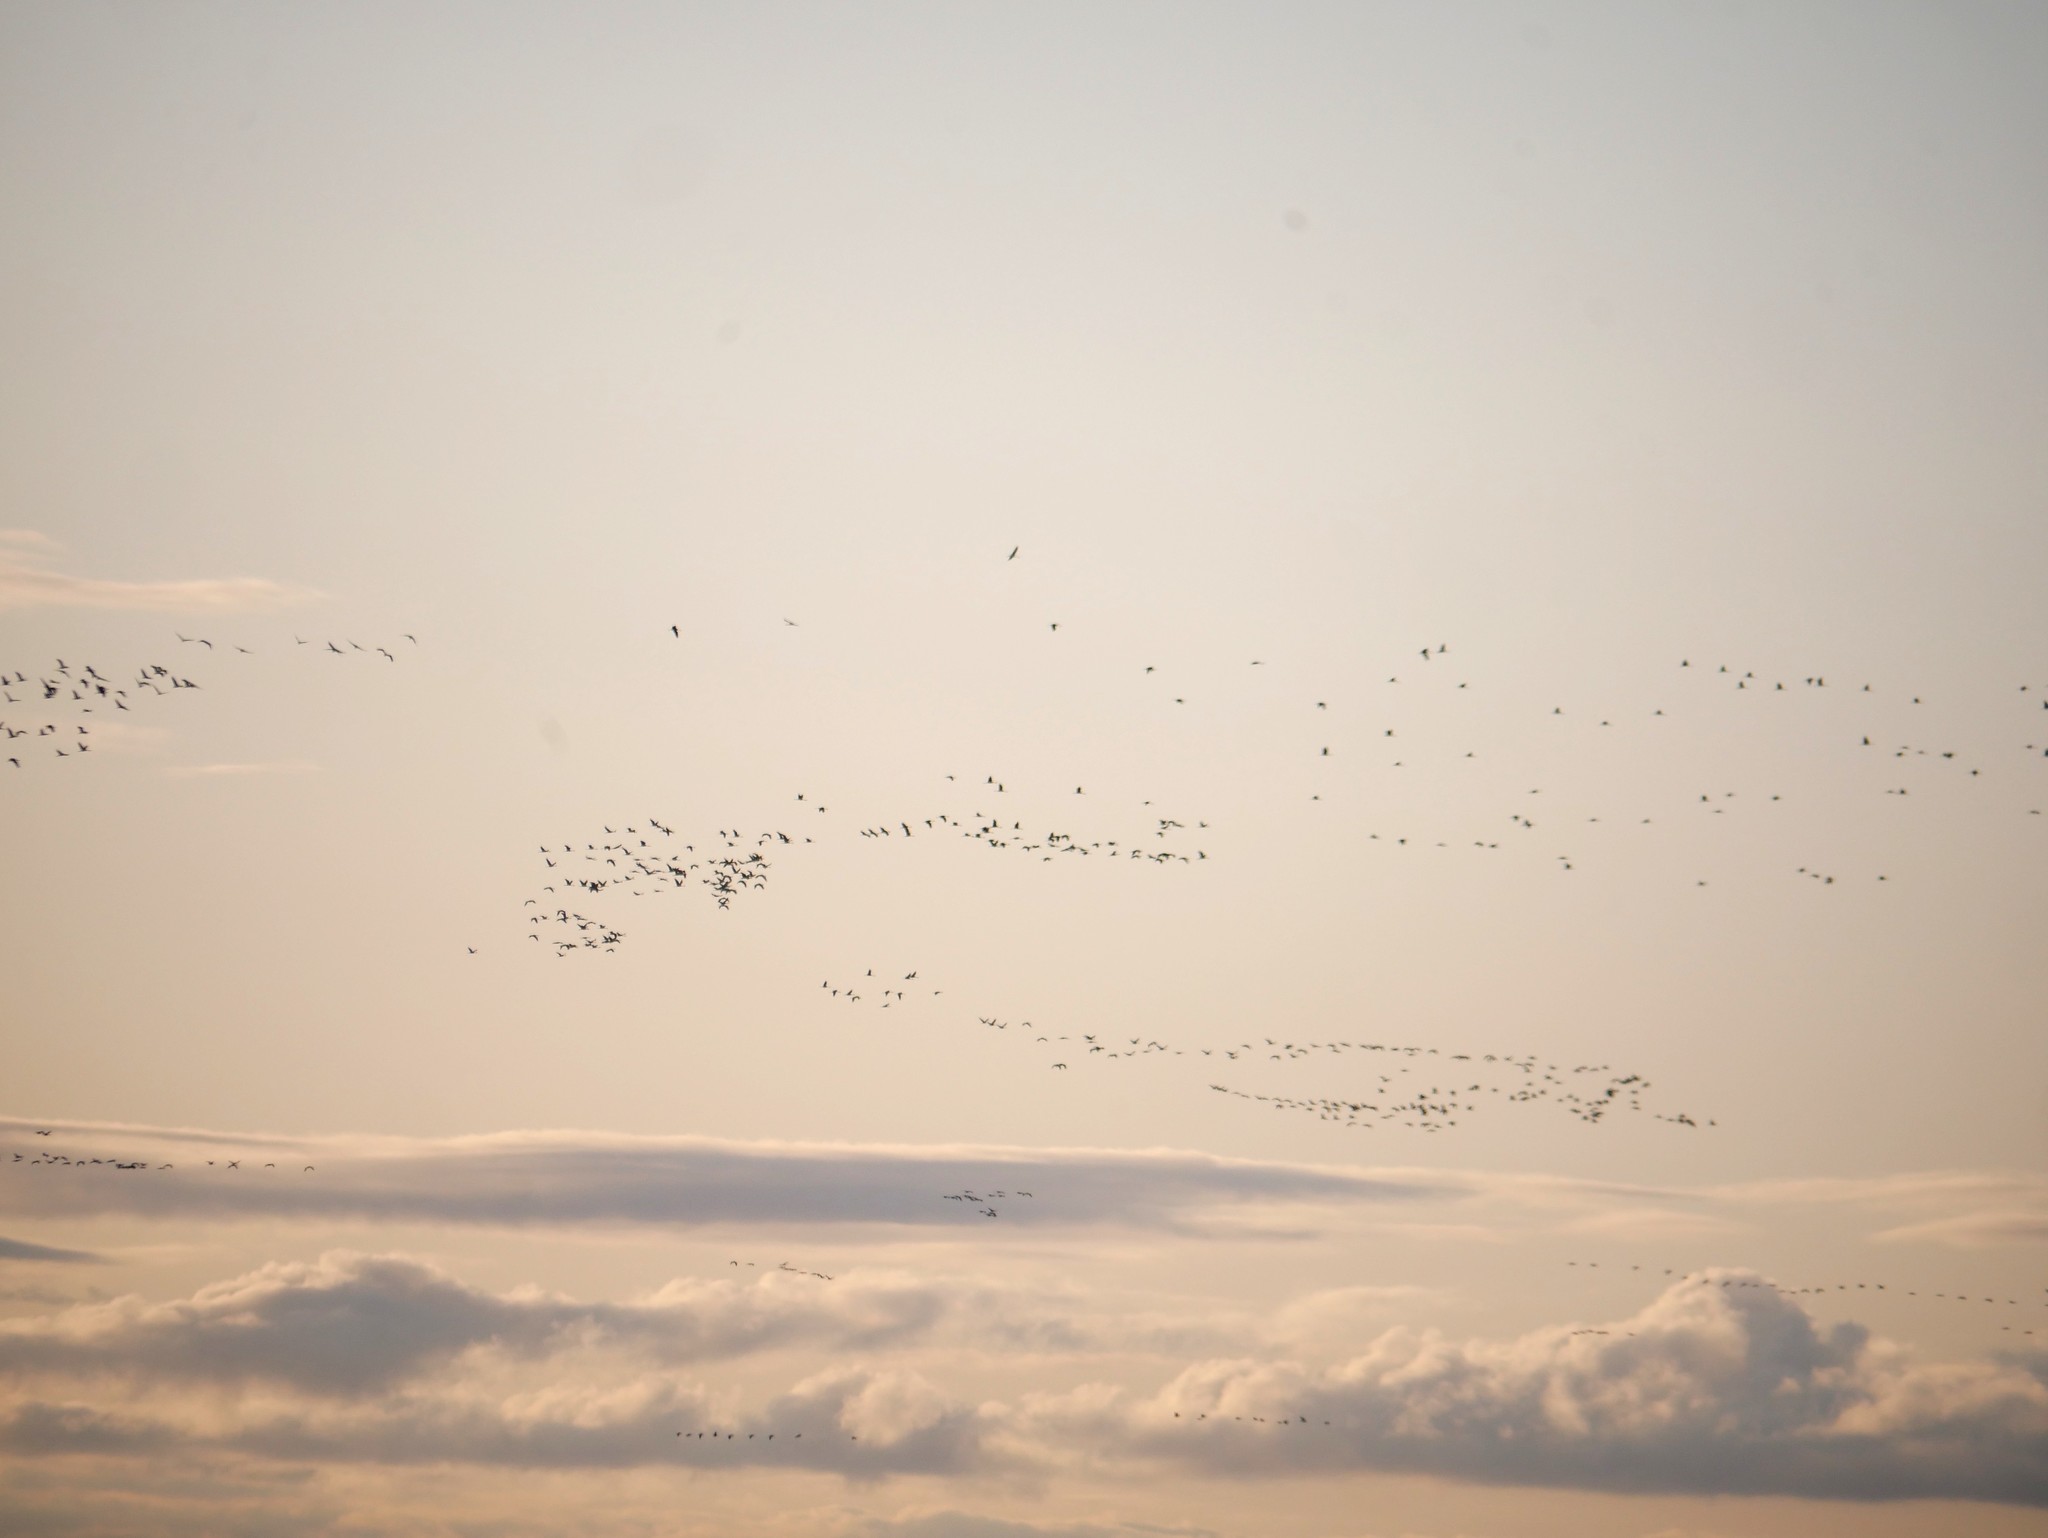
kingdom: Animalia
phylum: Chordata
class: Aves
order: Gruiformes
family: Gruidae
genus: Grus
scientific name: Grus grus
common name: Common crane
